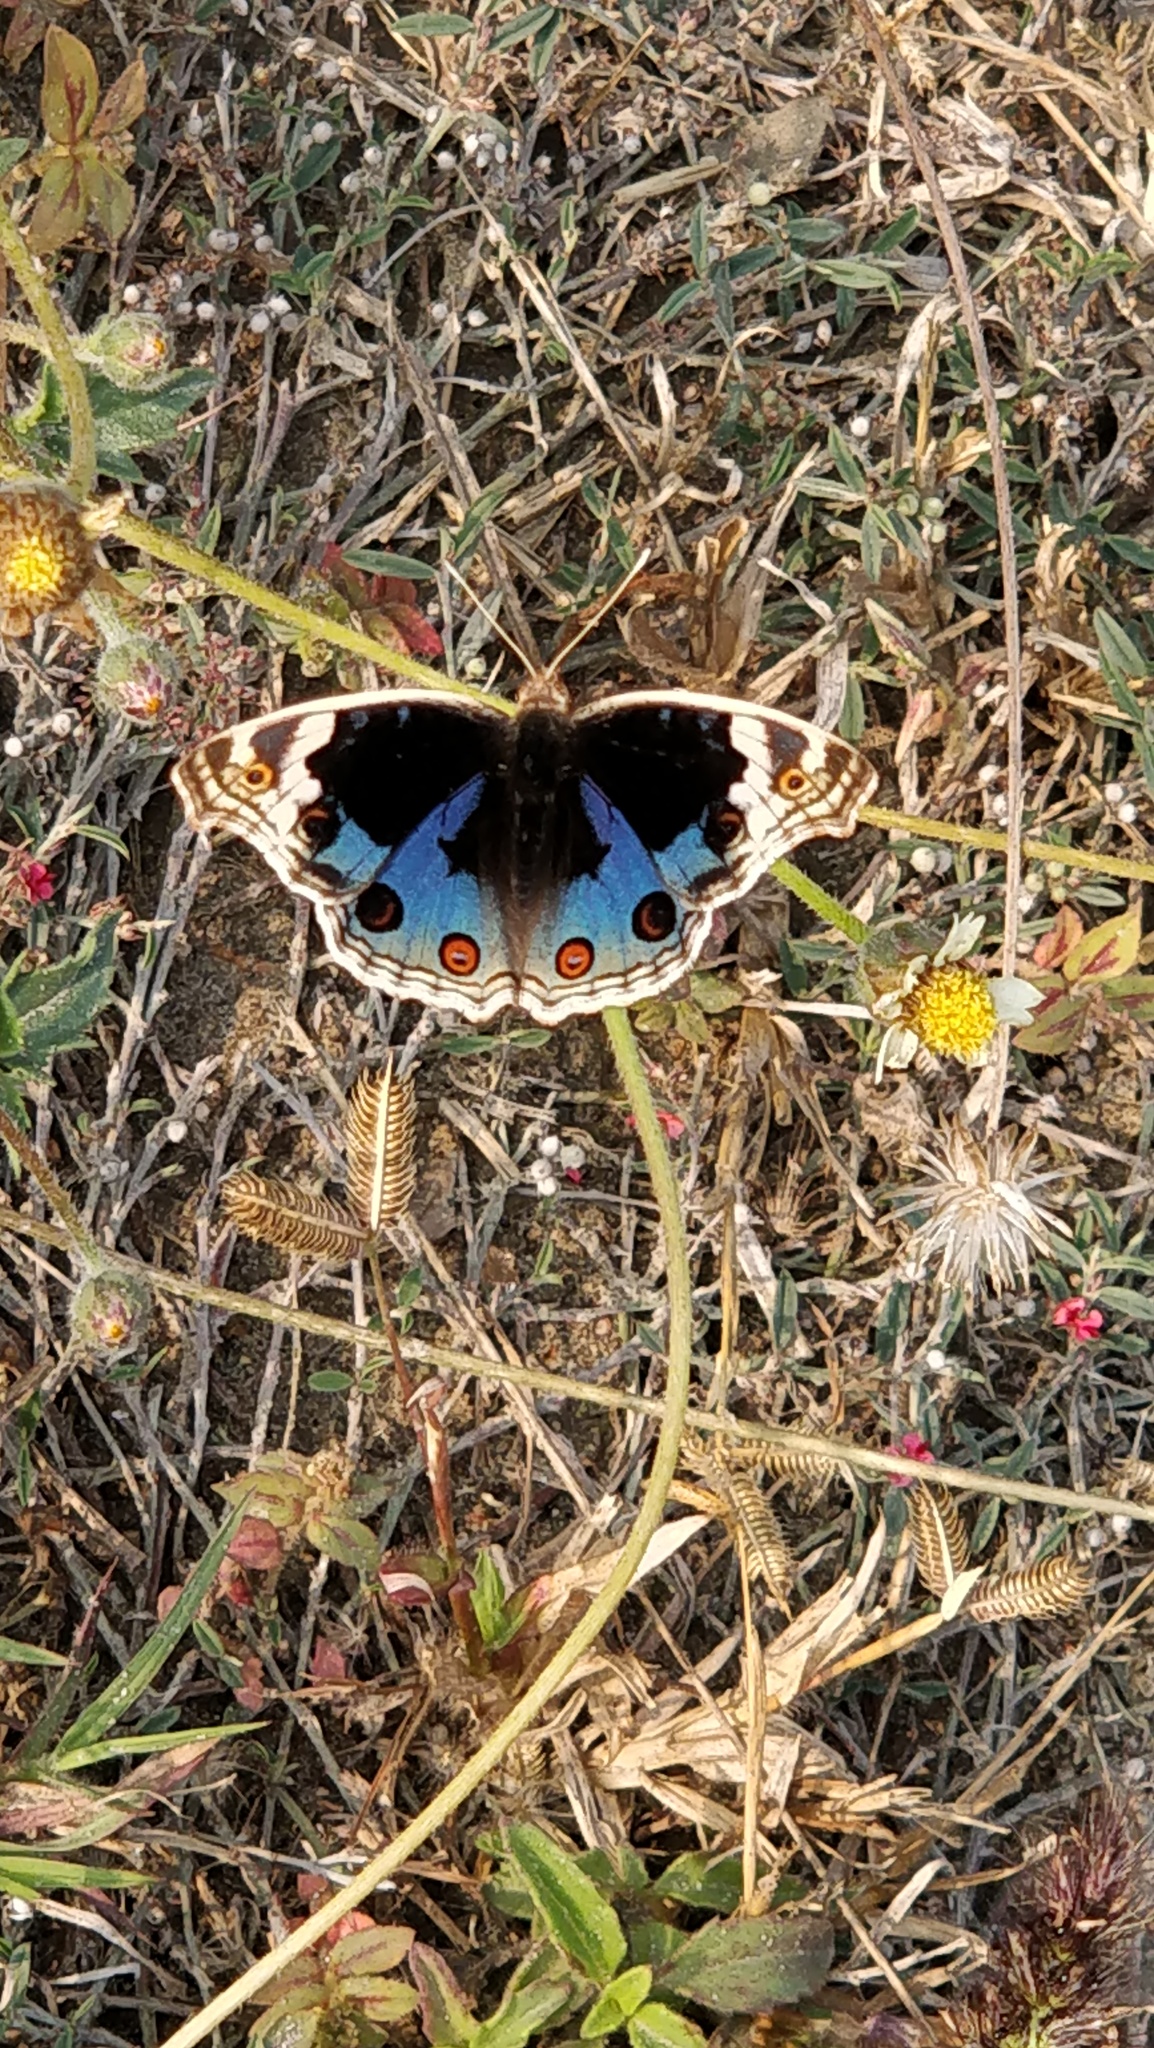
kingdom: Animalia
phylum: Arthropoda
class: Insecta
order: Lepidoptera
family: Nymphalidae
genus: Junonia
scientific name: Junonia orithya
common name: Blue pansy
